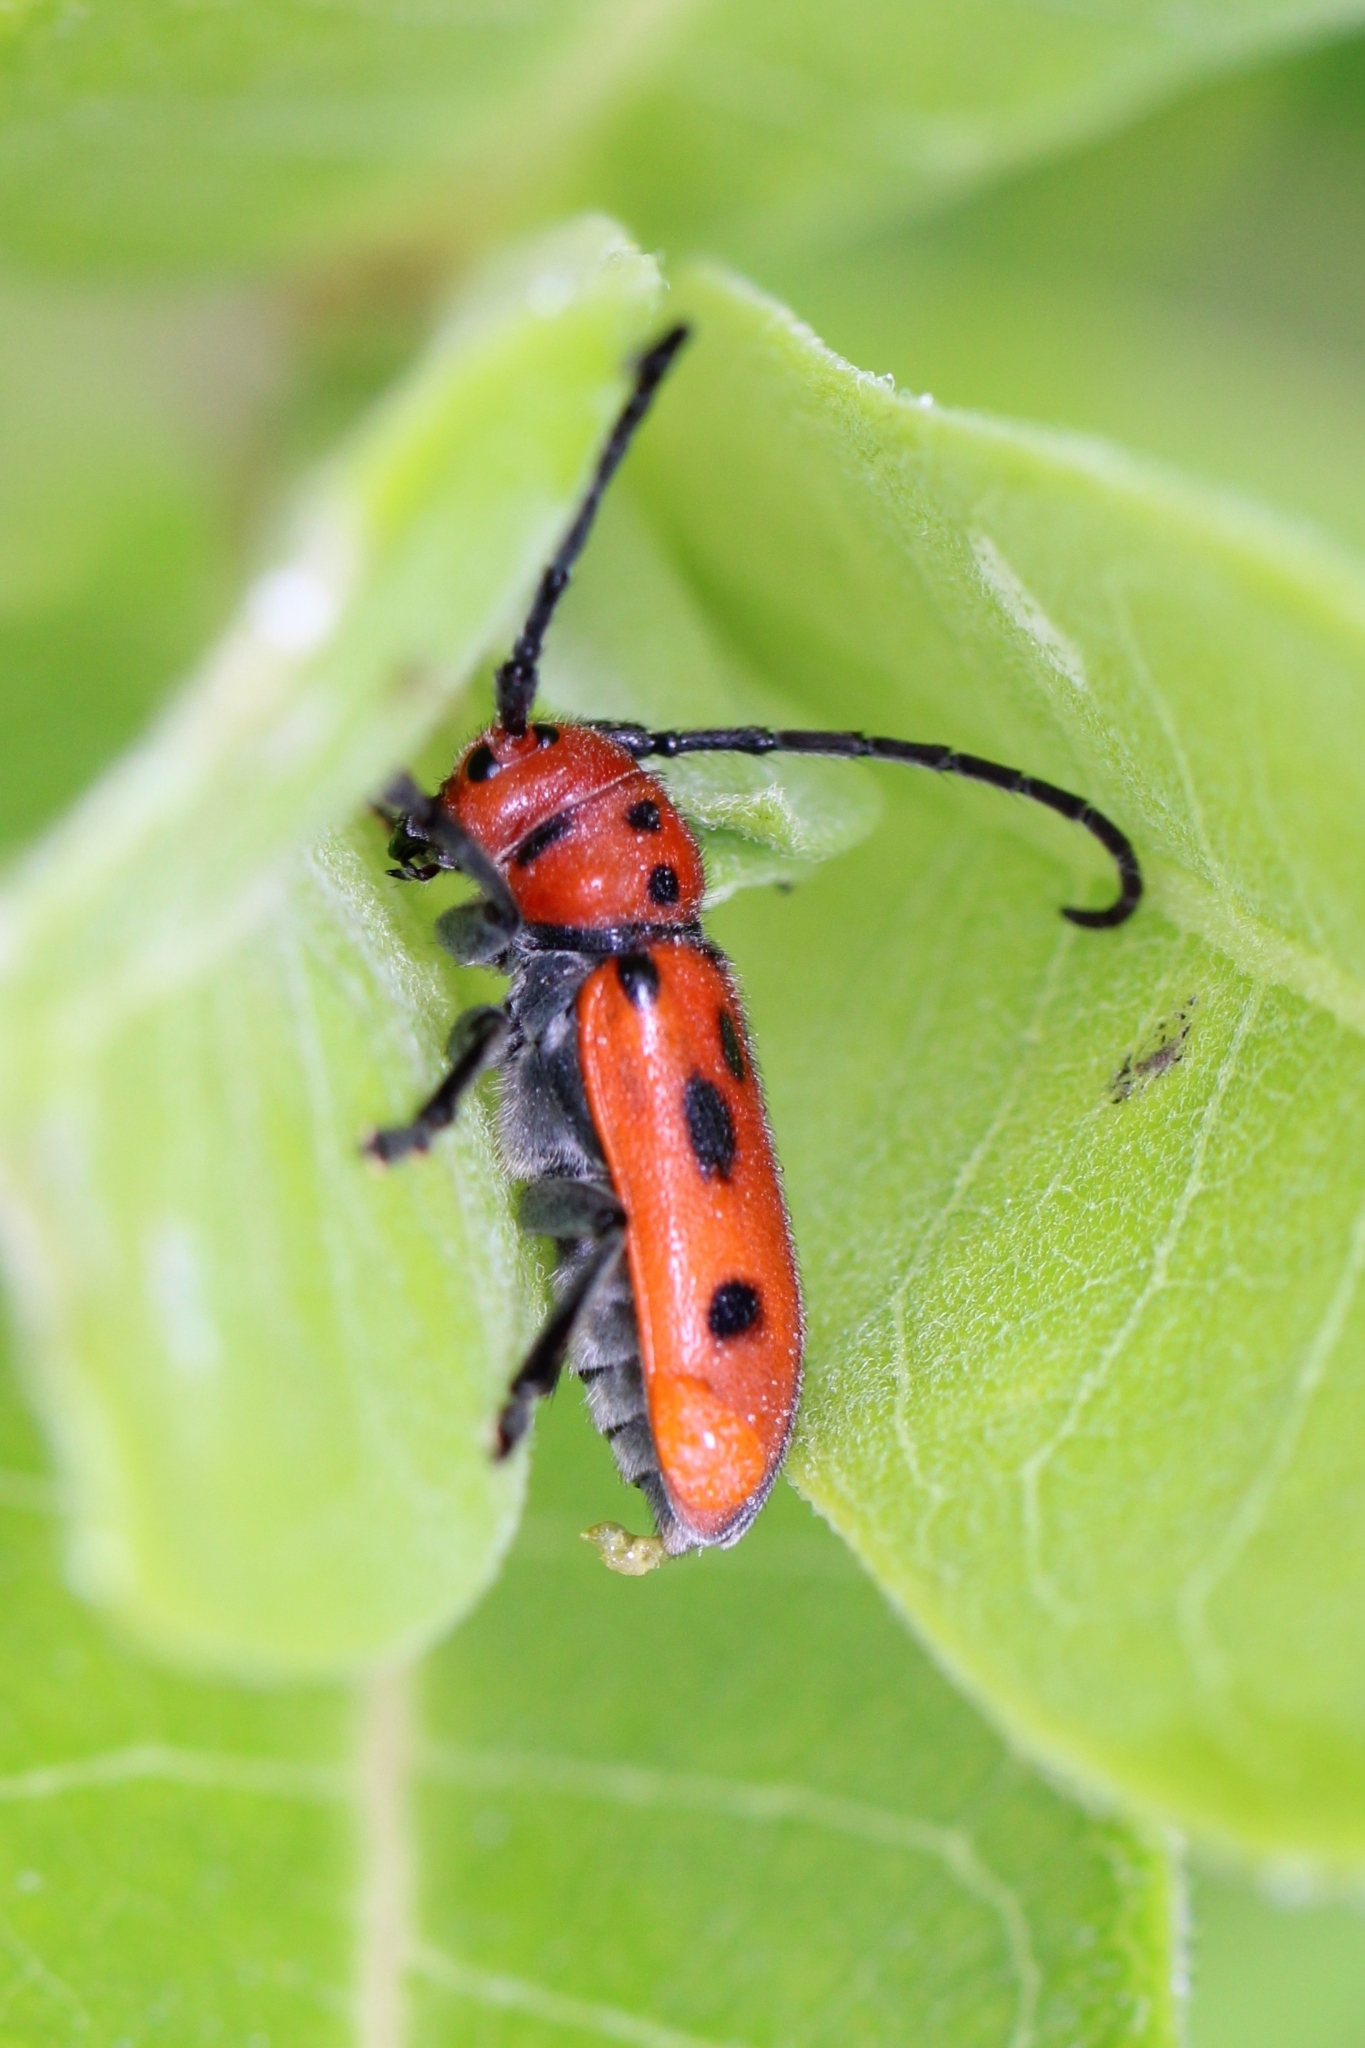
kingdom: Animalia
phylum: Arthropoda
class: Insecta
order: Coleoptera
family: Cerambycidae
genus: Tetraopes
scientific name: Tetraopes tetrophthalmus
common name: Red milkweed beetle
